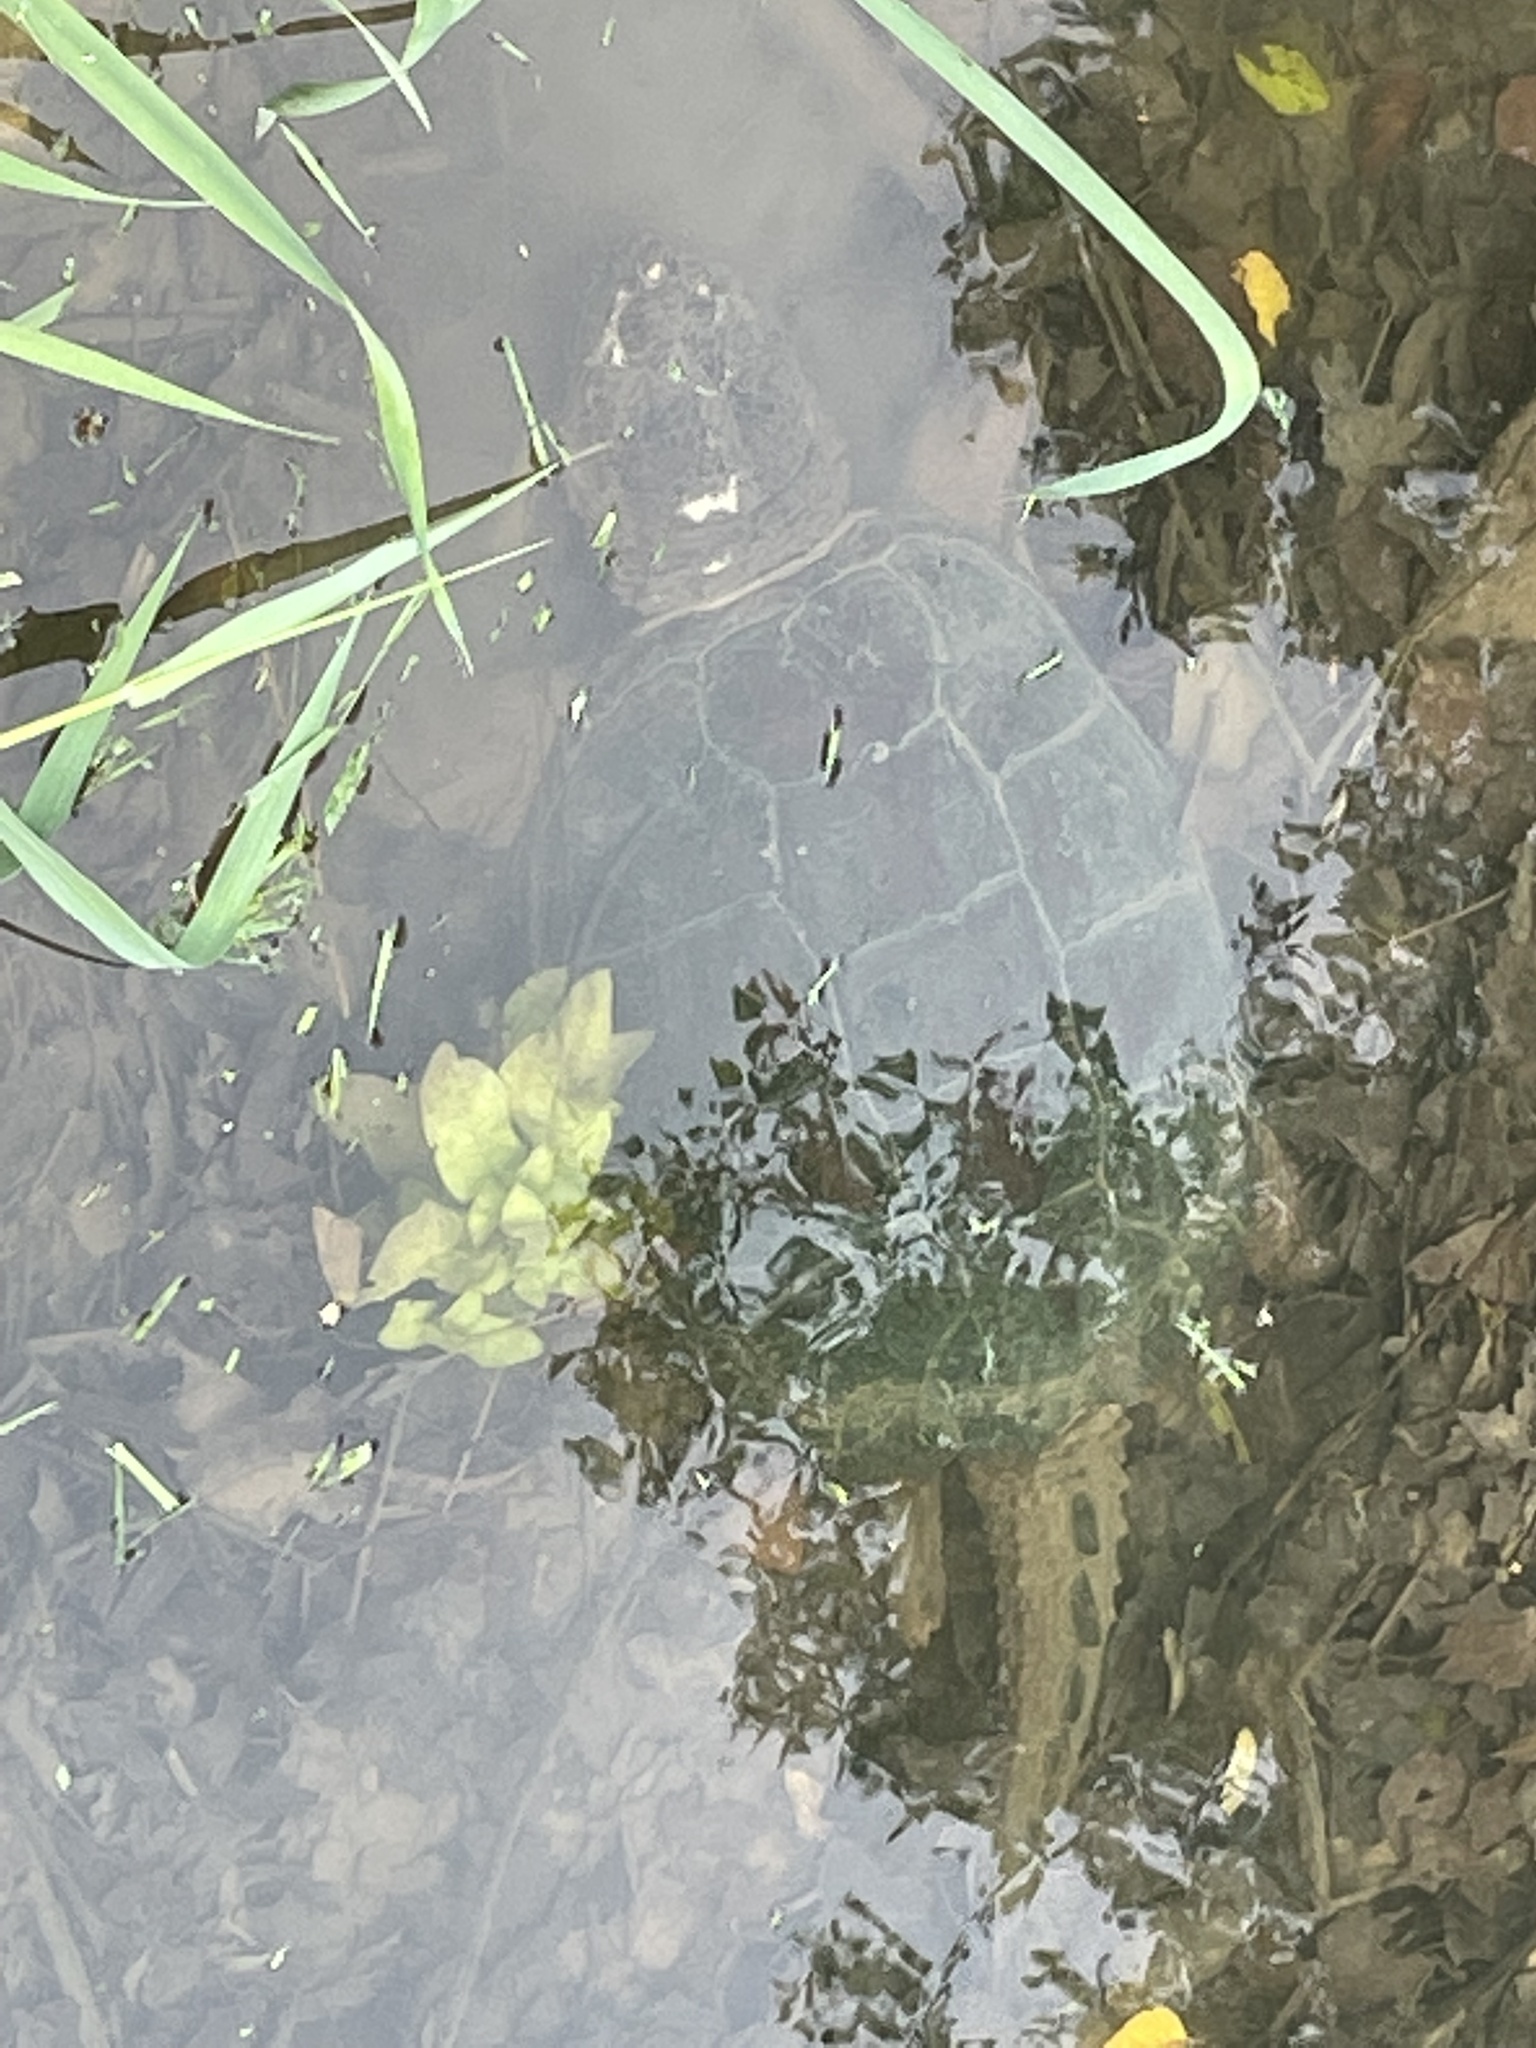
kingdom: Animalia
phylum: Chordata
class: Testudines
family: Chelydridae
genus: Chelydra
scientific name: Chelydra serpentina
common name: Common snapping turtle
